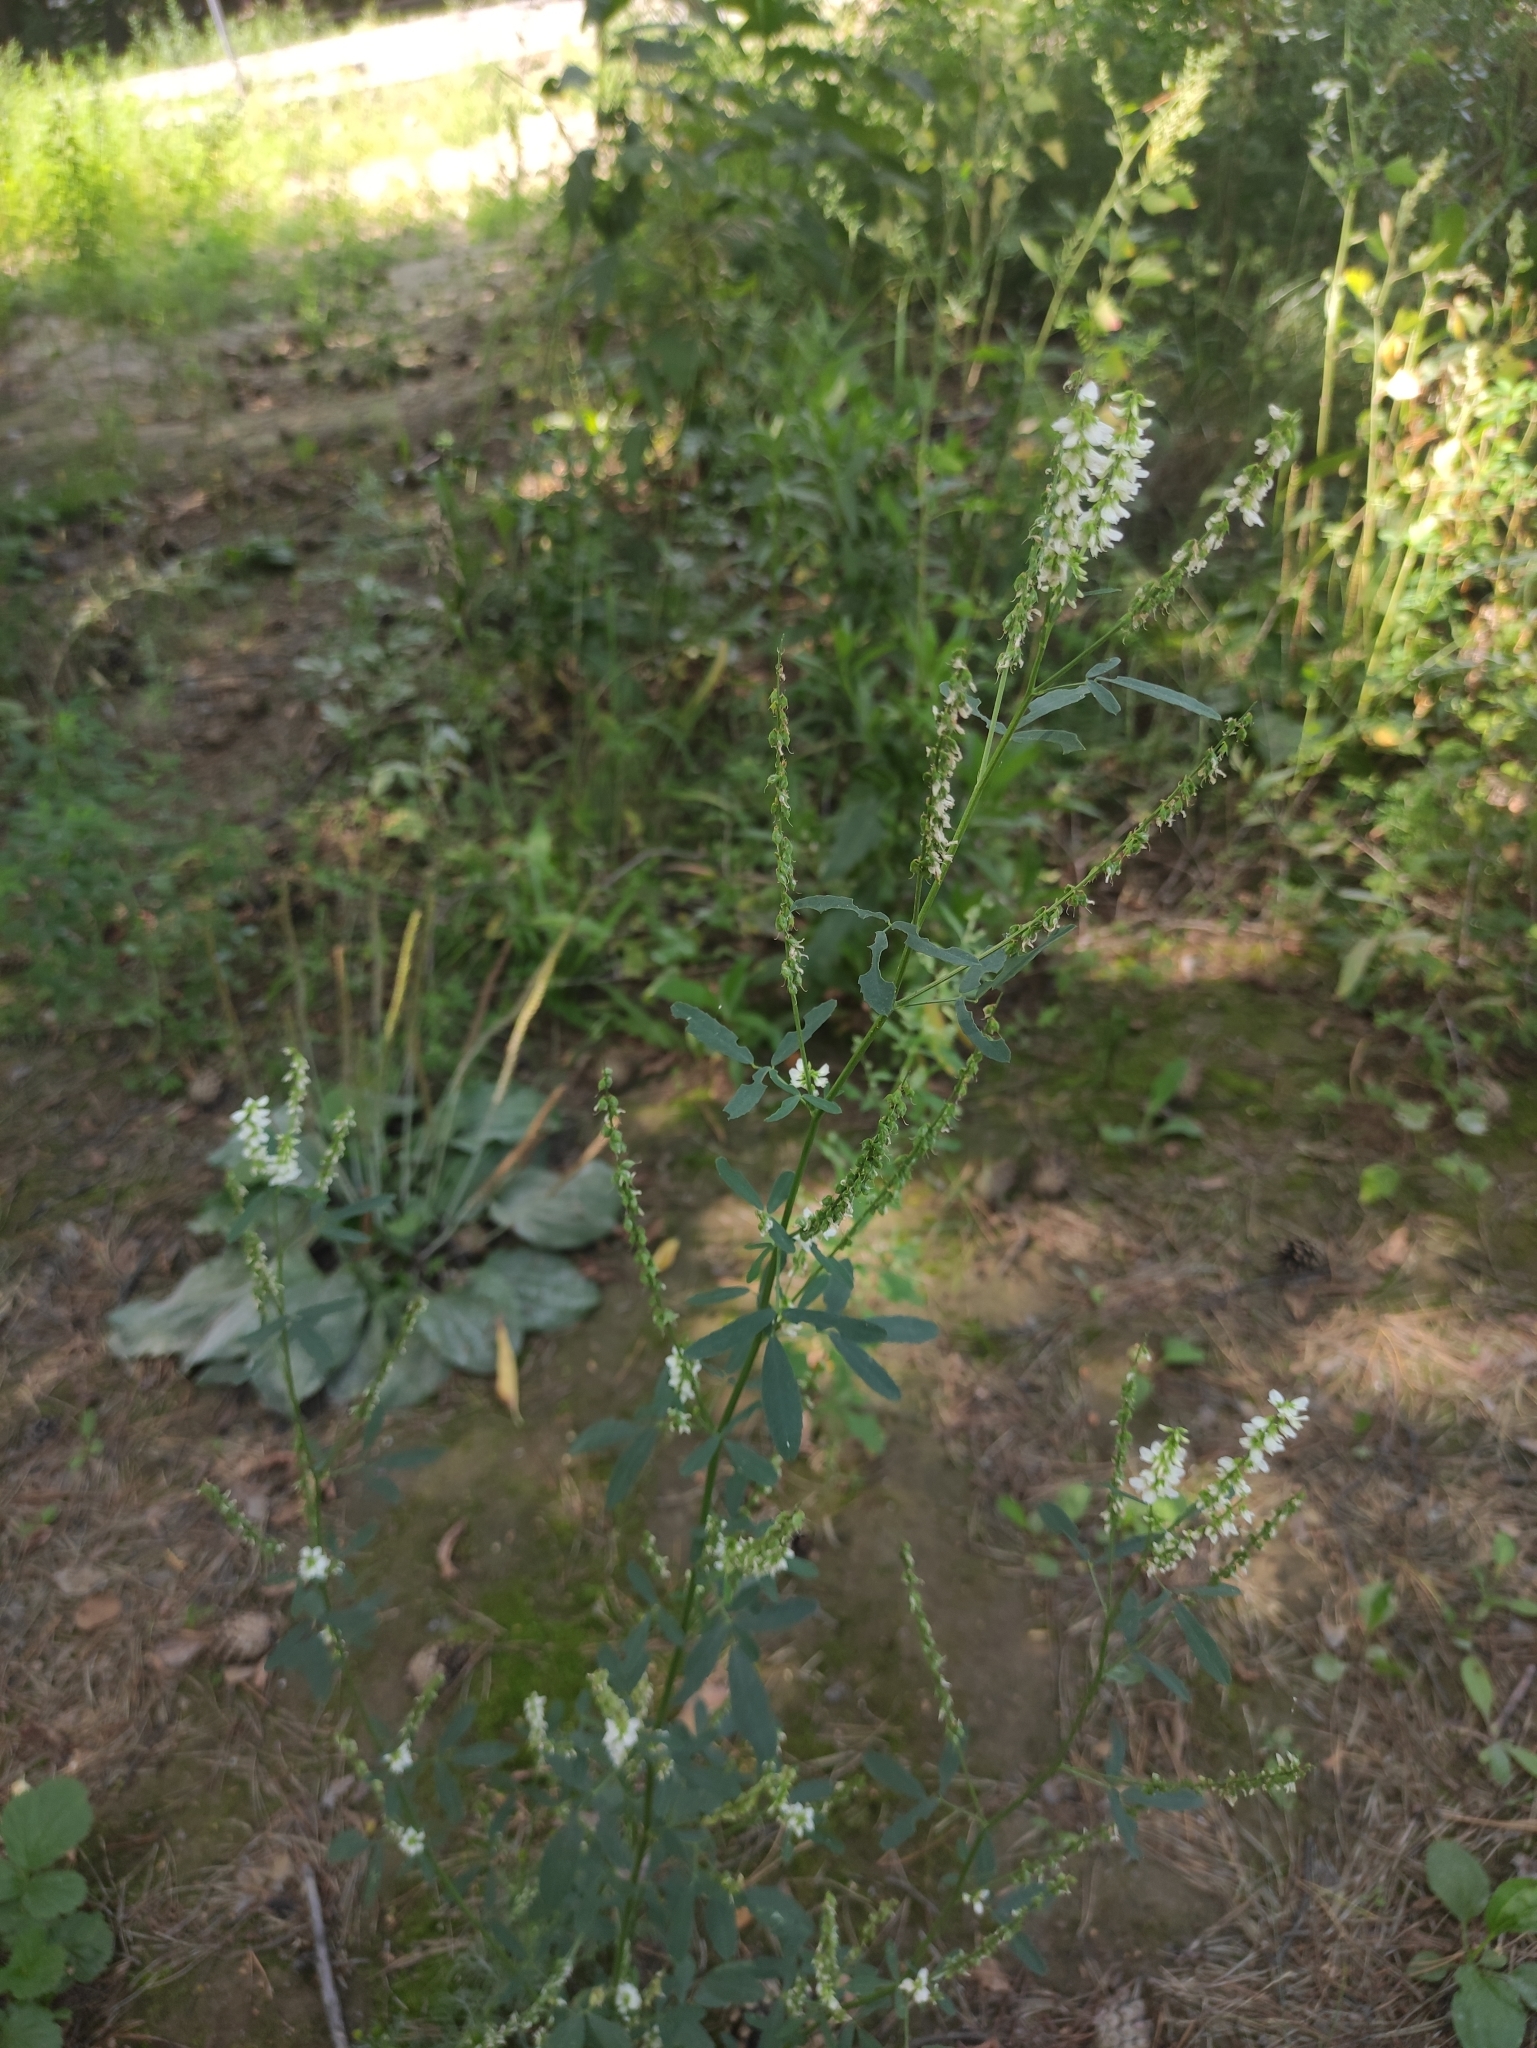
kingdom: Plantae
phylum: Tracheophyta
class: Magnoliopsida
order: Fabales
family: Fabaceae
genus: Melilotus
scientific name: Melilotus albus
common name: White melilot
